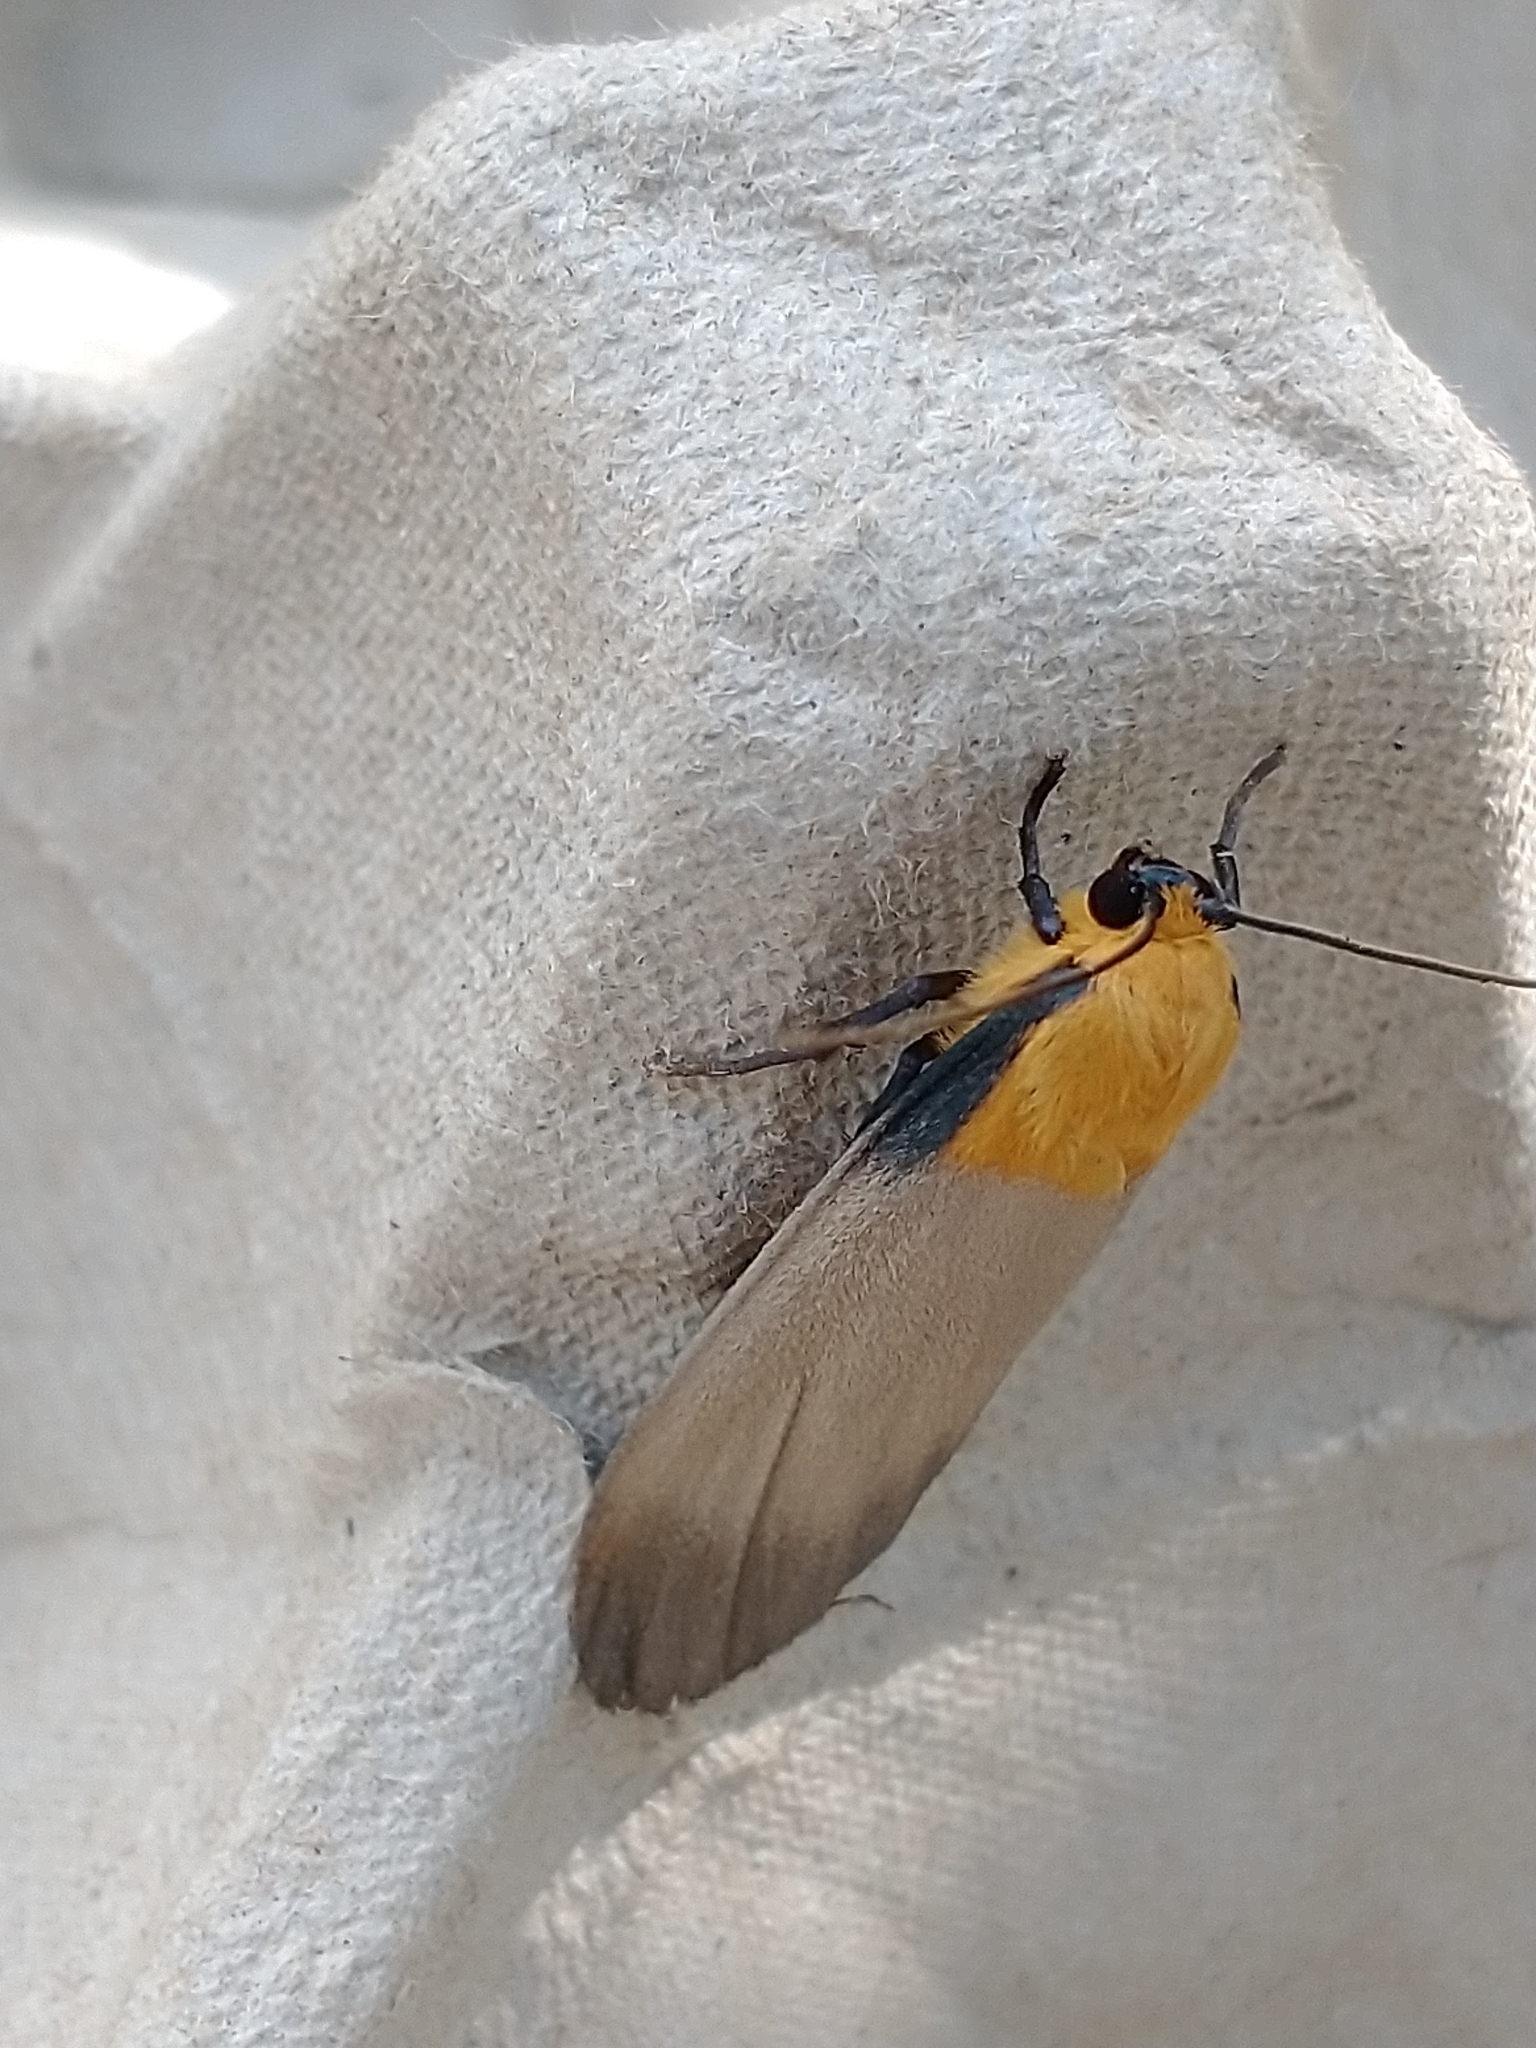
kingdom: Animalia
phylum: Arthropoda
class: Insecta
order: Lepidoptera
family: Erebidae
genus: Lithosia
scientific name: Lithosia quadra
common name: Four-spotted footman
